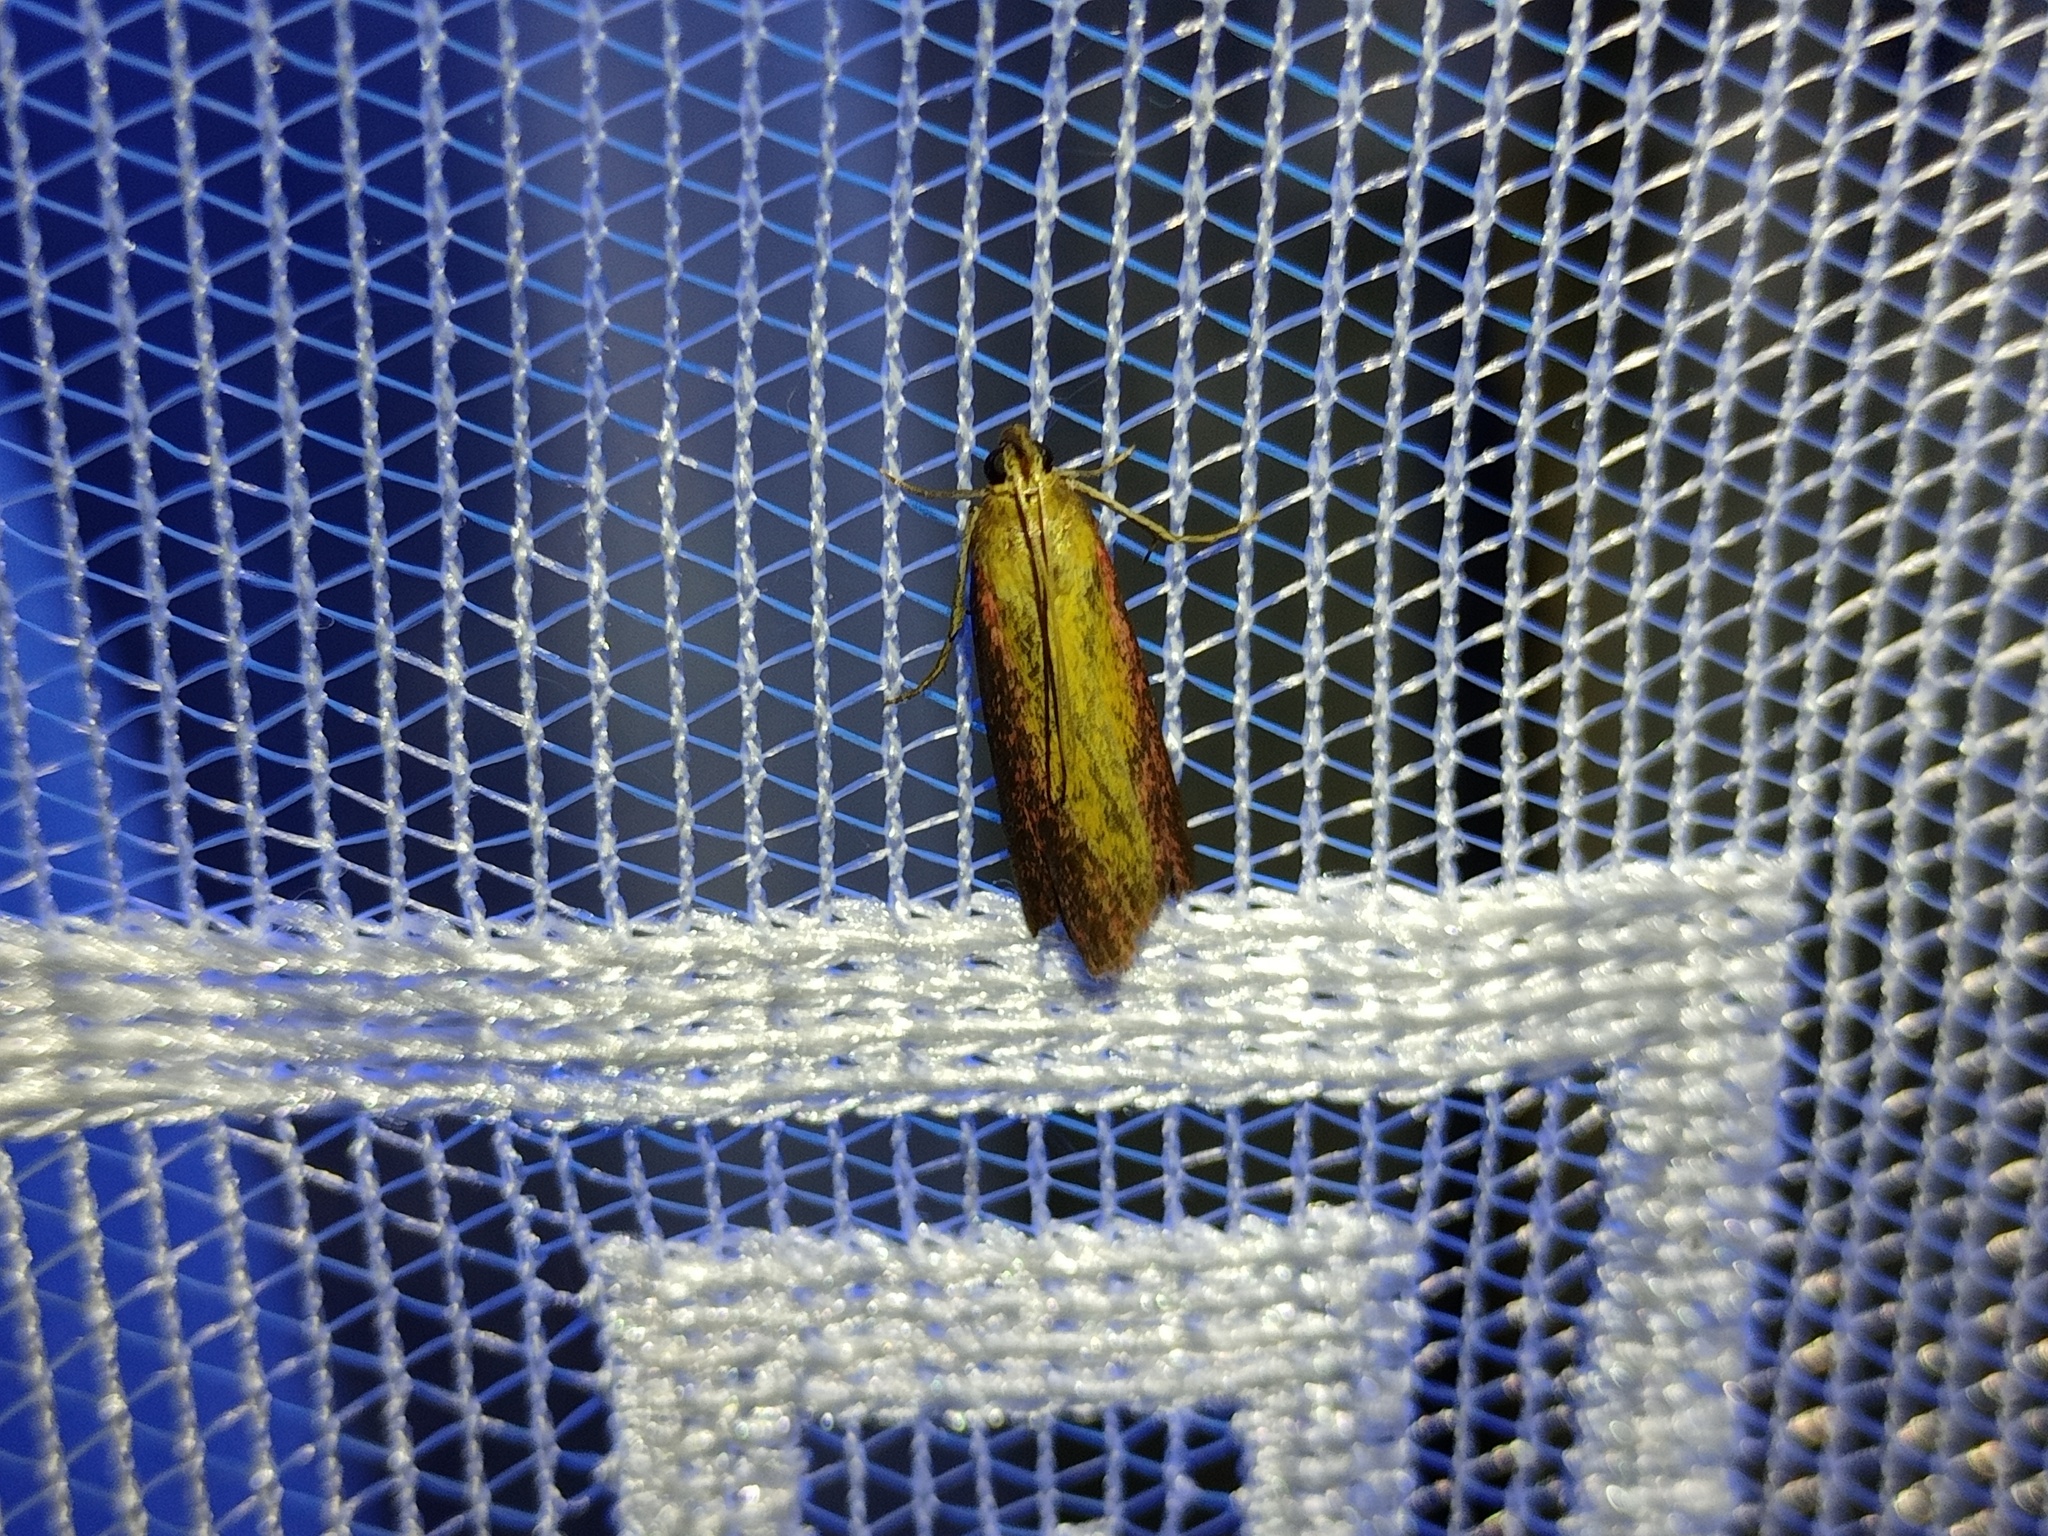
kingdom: Animalia
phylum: Arthropoda
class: Insecta
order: Lepidoptera
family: Pyralidae
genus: Oncocera
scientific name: Oncocera semirubella
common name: Rosy-striped knot-horn
